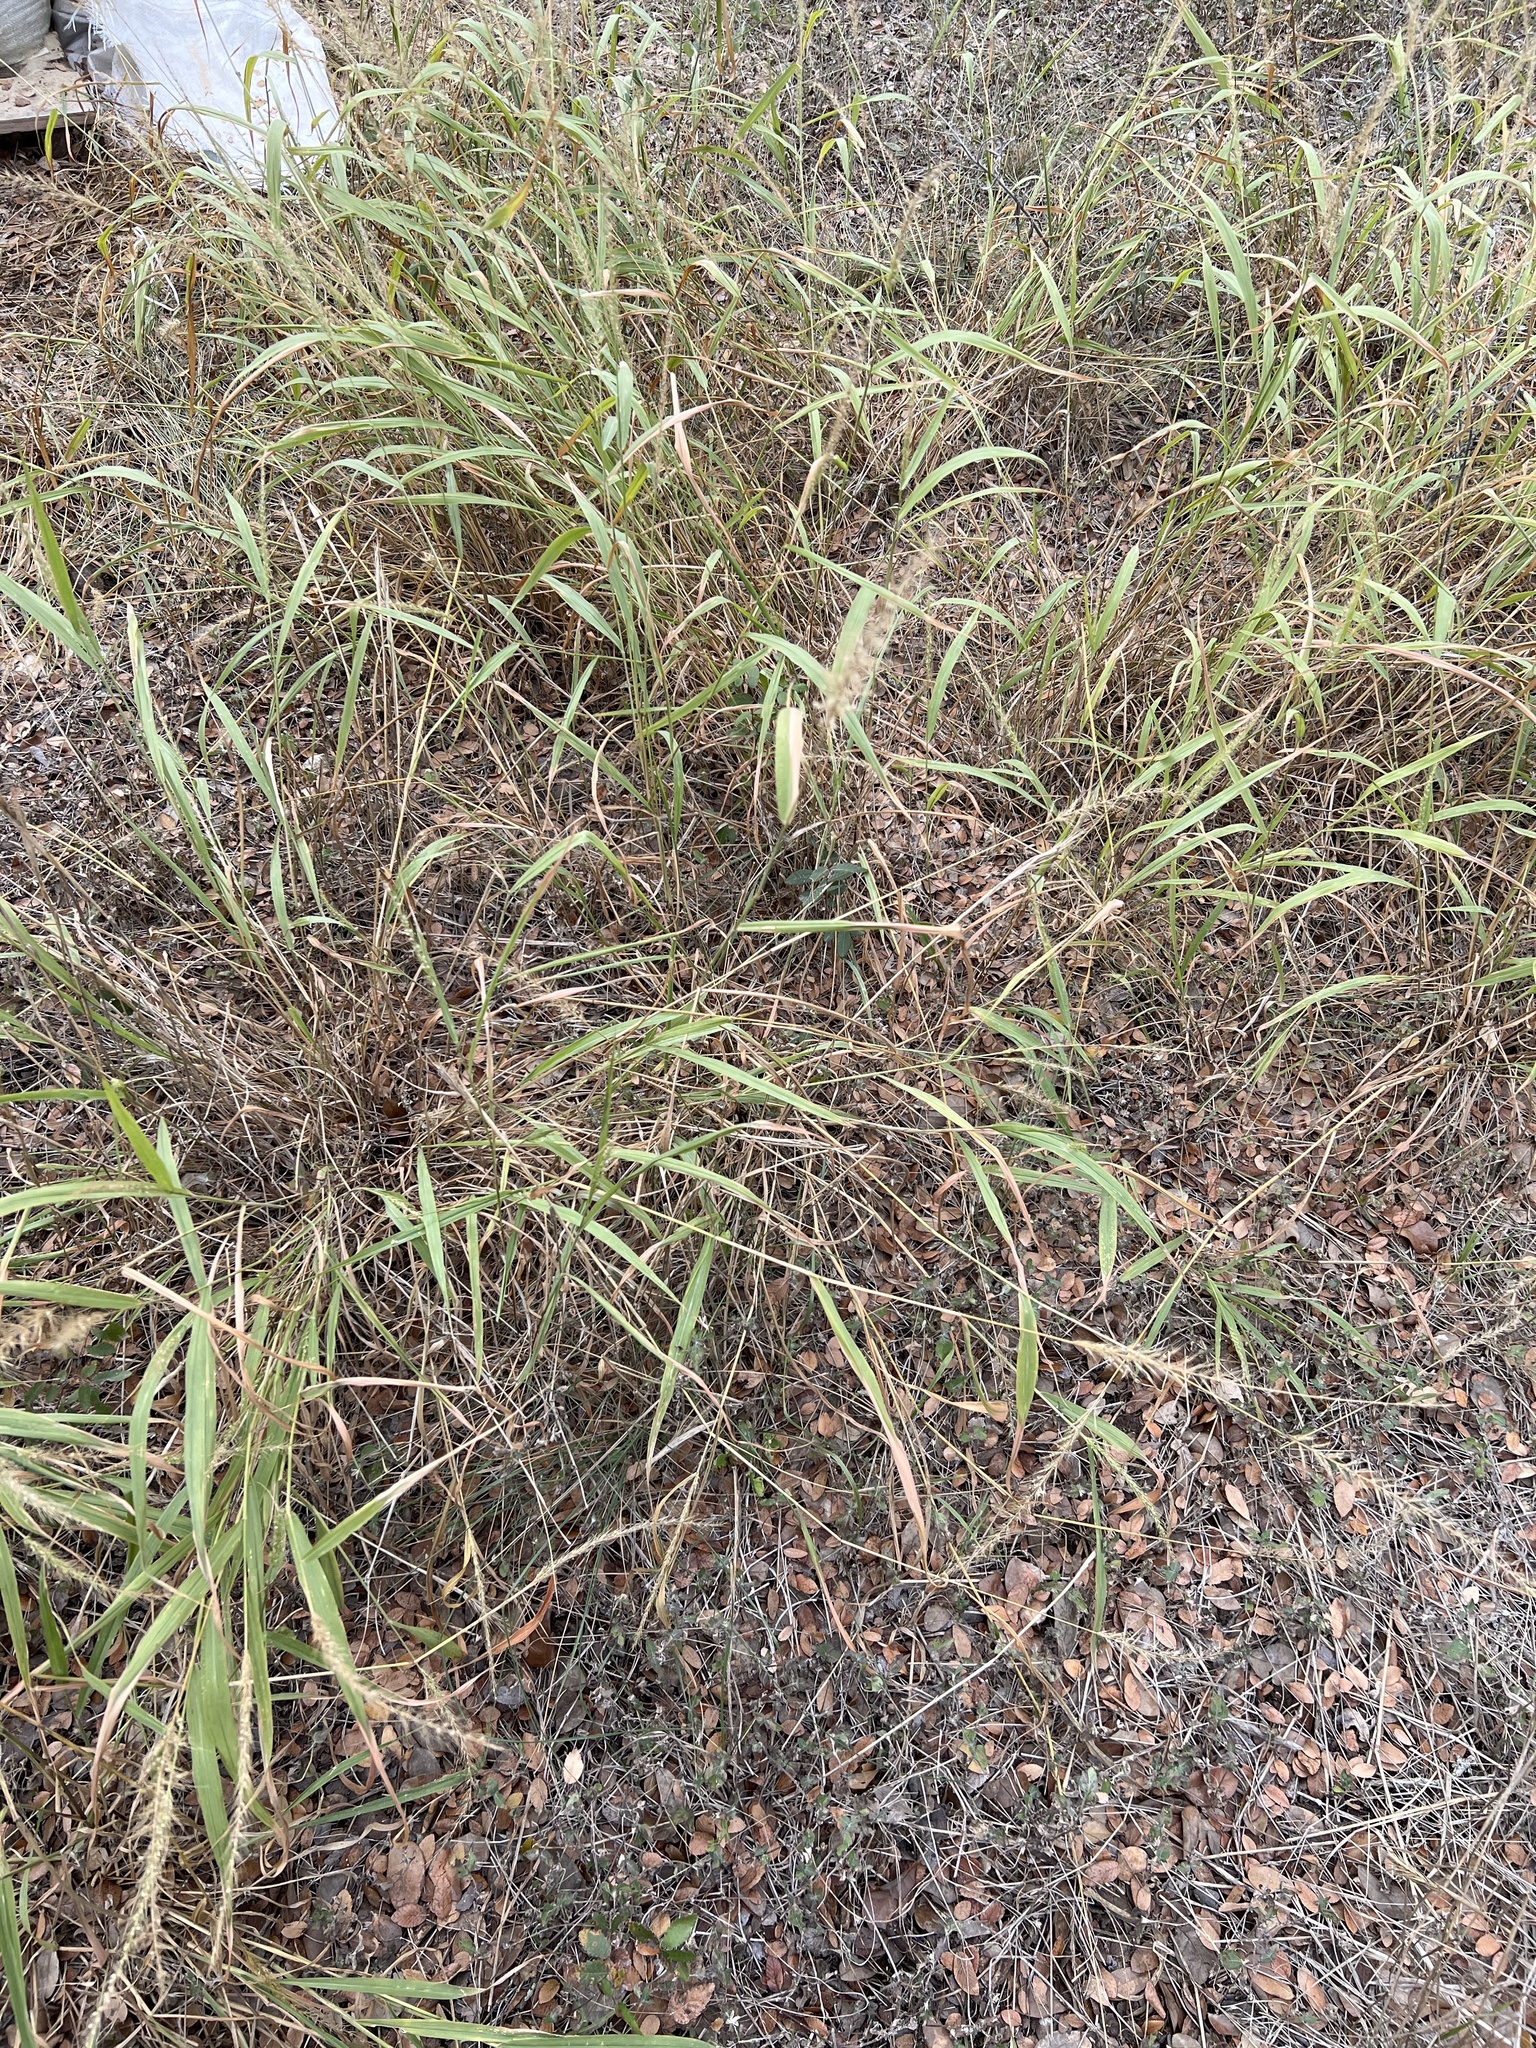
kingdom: Plantae
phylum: Tracheophyta
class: Liliopsida
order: Poales
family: Poaceae
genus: Setaria
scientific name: Setaria scheelei
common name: Southwestern bristle grass
